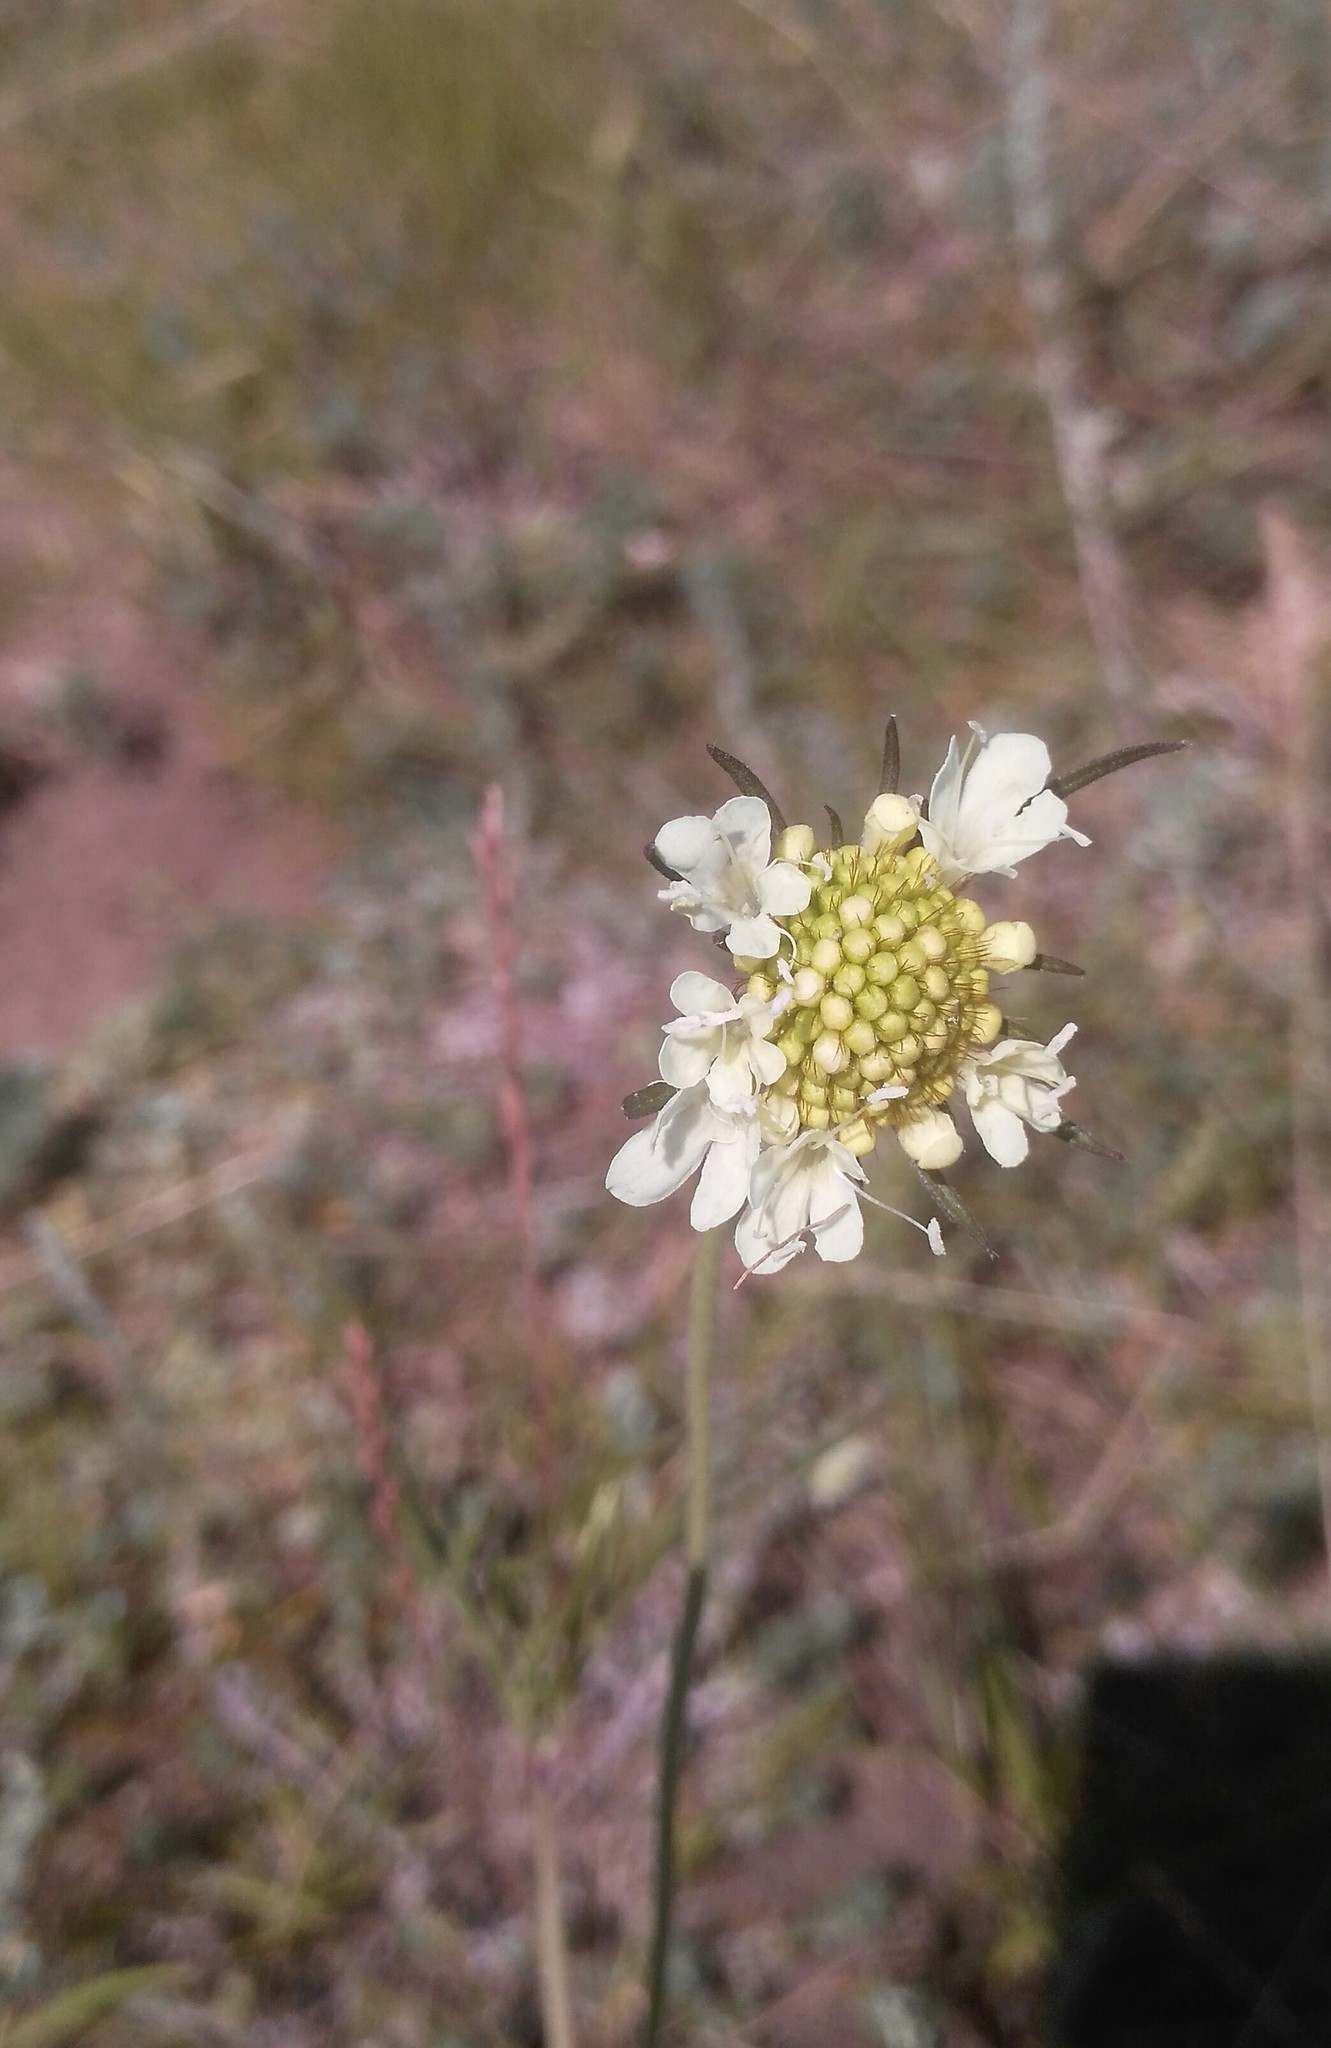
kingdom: Plantae
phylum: Tracheophyta
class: Magnoliopsida
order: Dipsacales
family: Caprifoliaceae
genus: Scabiosa
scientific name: Scabiosa ochroleuca
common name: Cream pincushions
